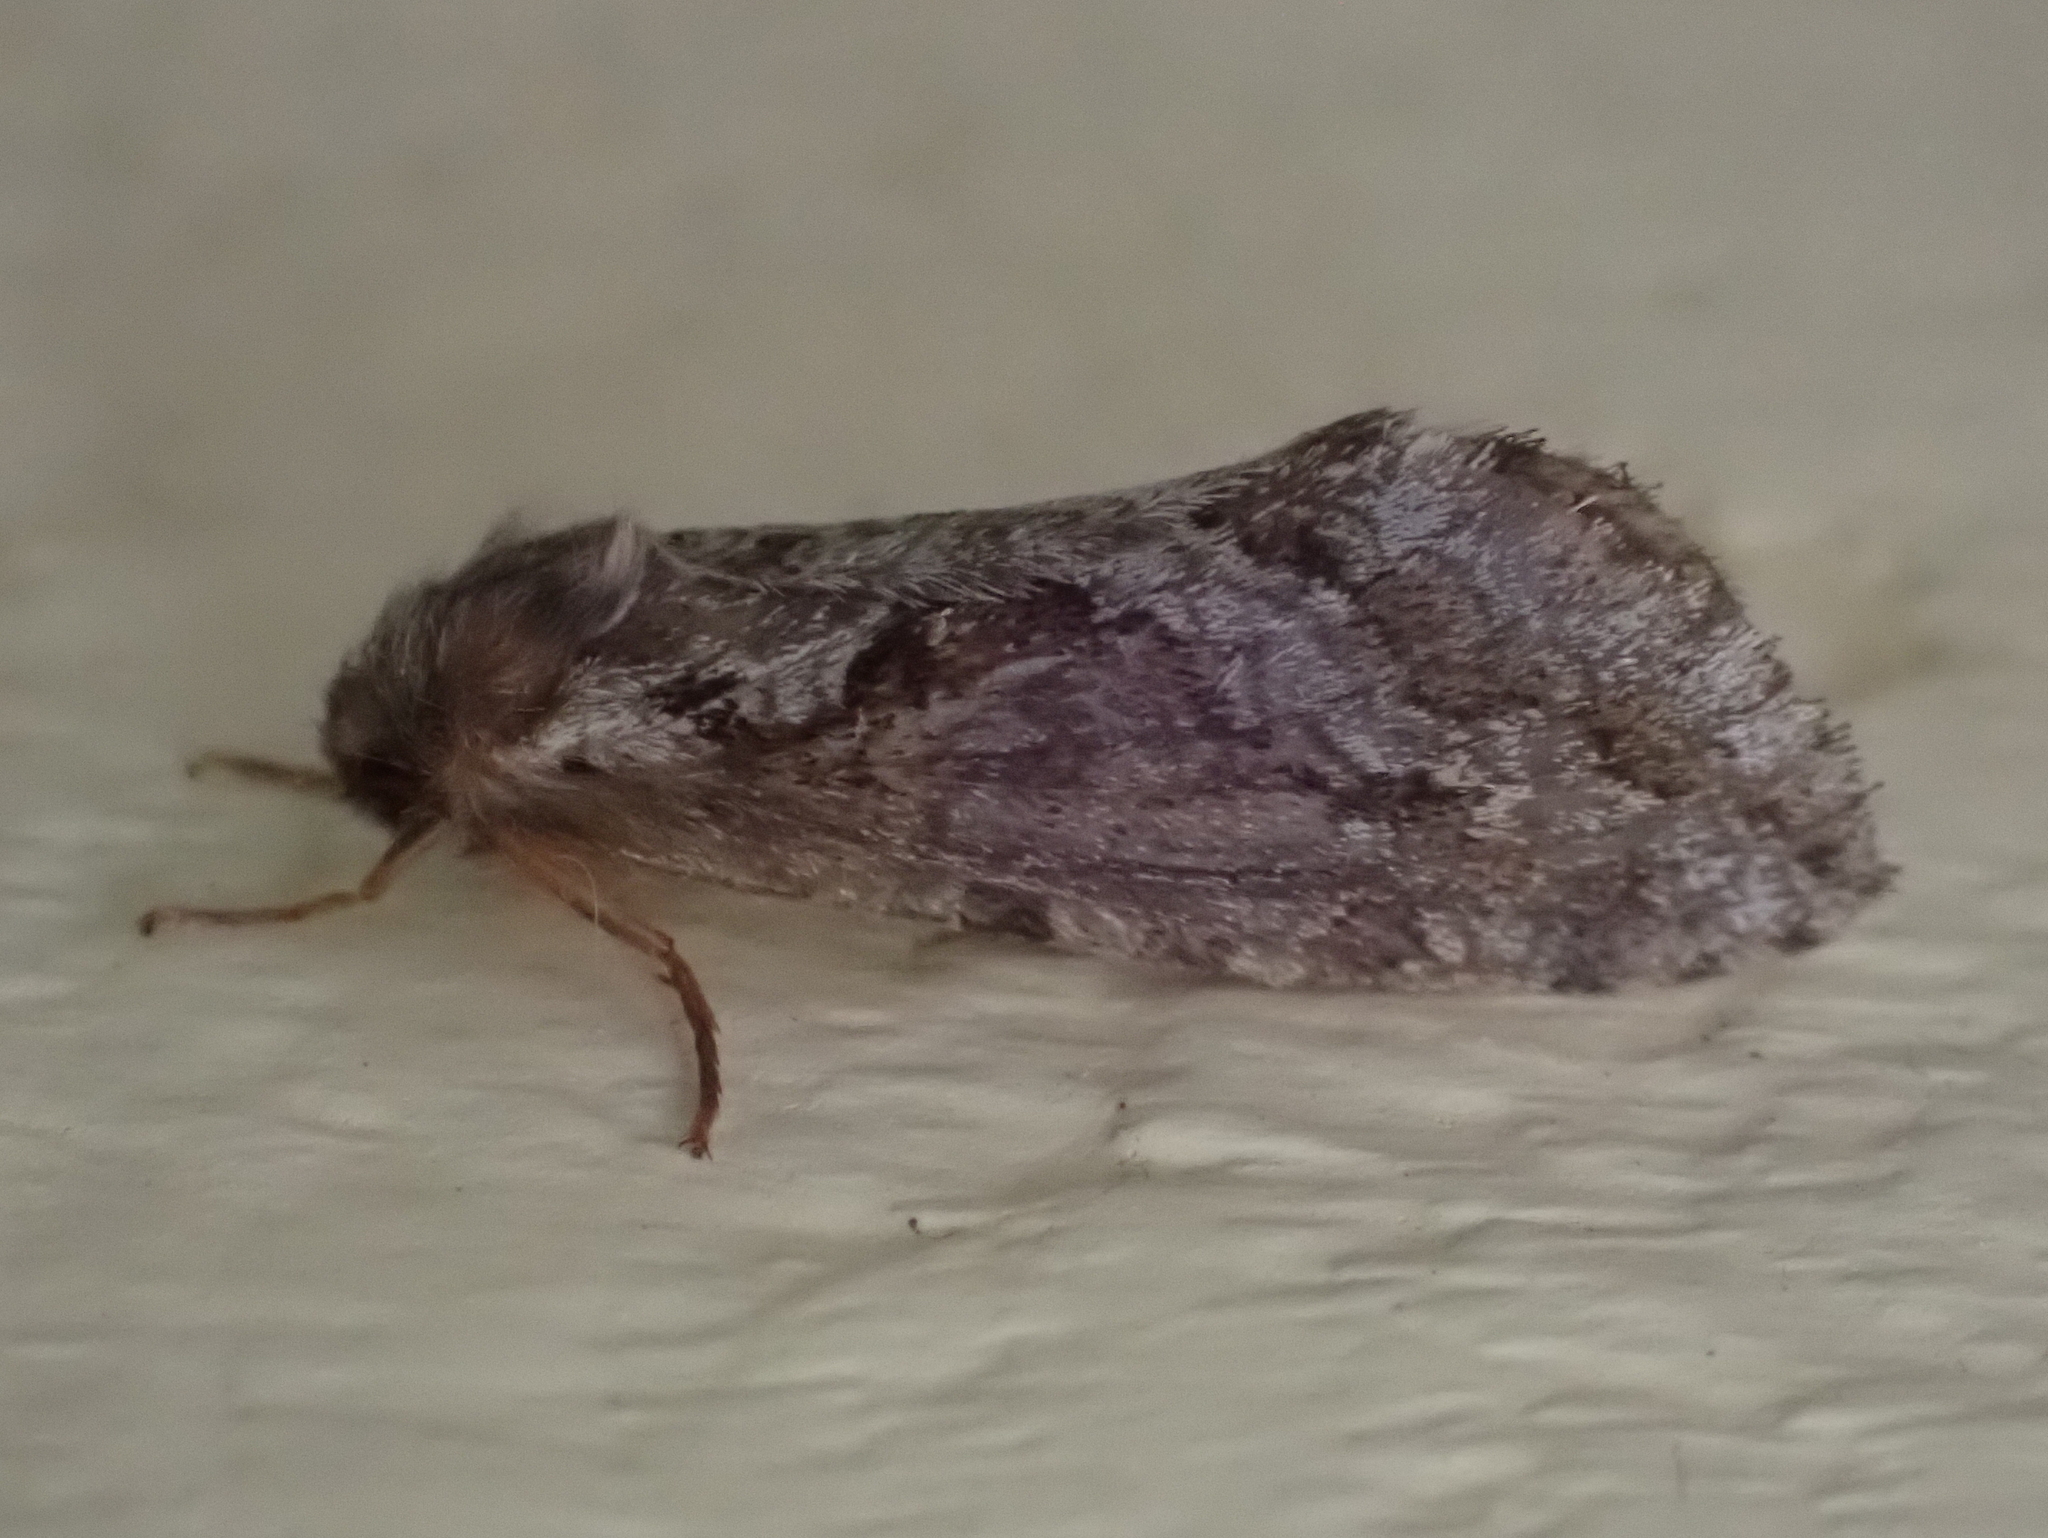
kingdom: Animalia
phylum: Arthropoda
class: Insecta
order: Lepidoptera
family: Hepialidae
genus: Korscheltellus
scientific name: Korscheltellus gracilis
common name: Conifer swift moth
